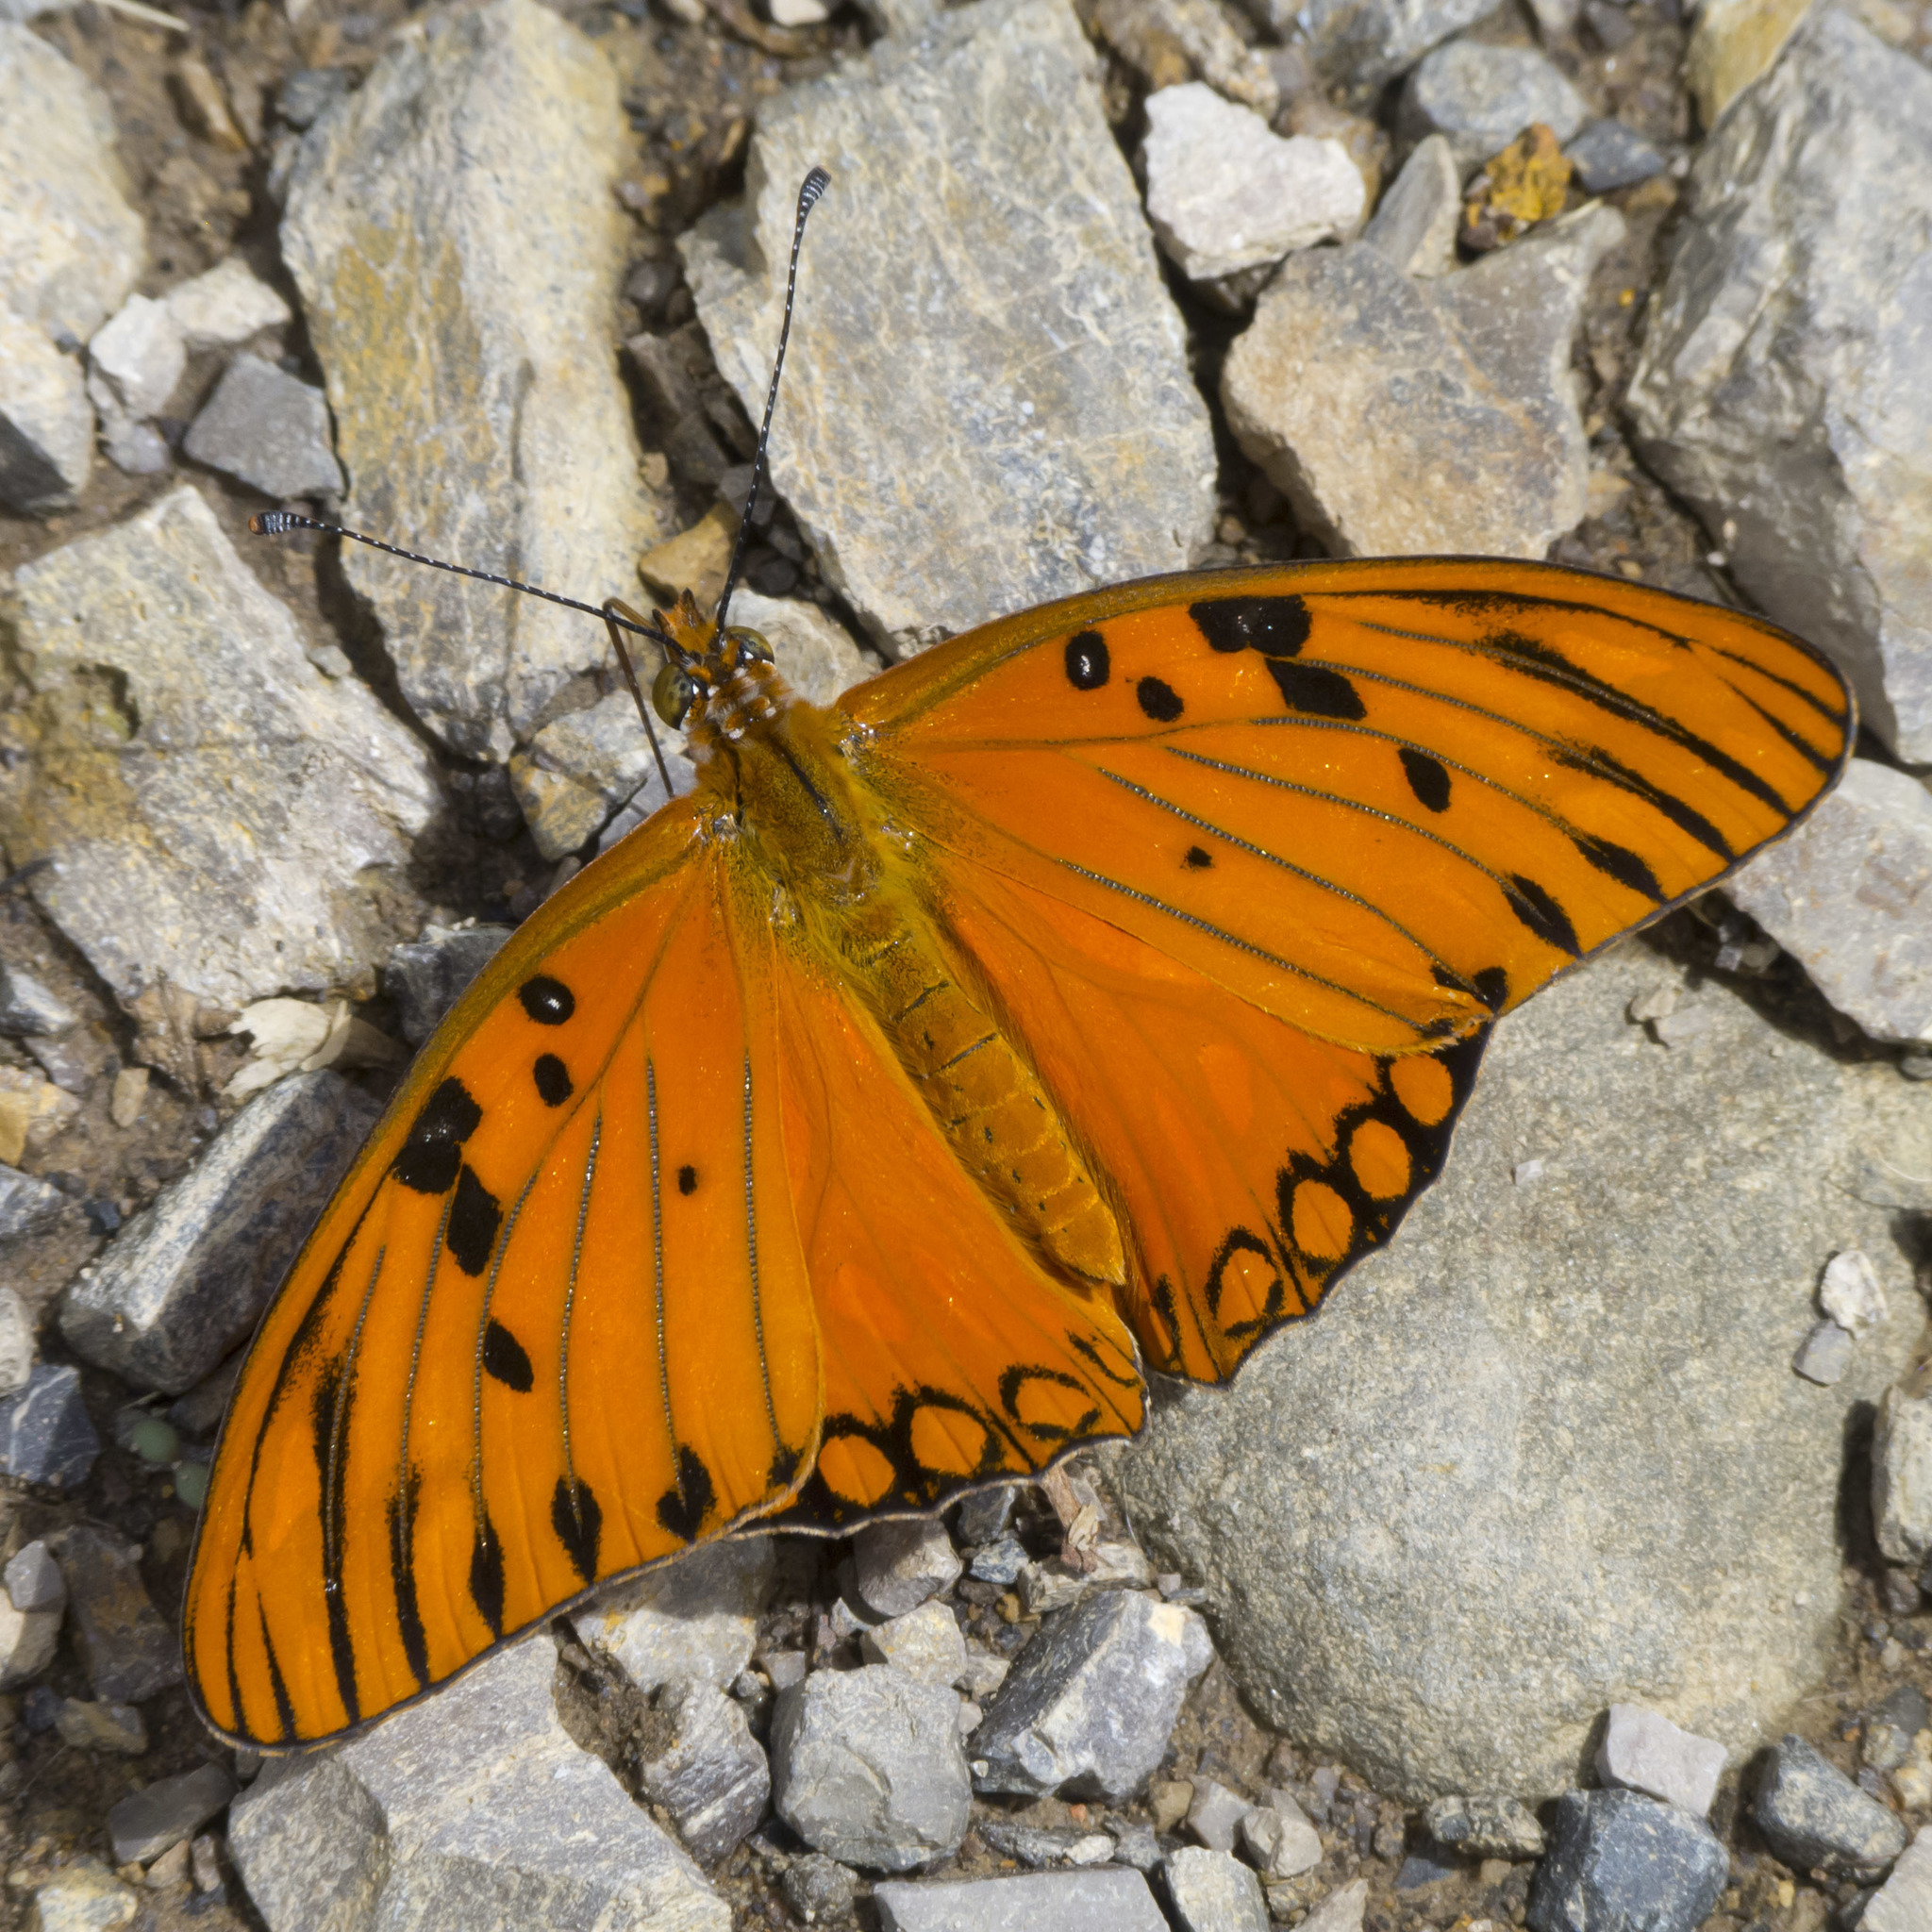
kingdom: Animalia
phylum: Arthropoda
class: Insecta
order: Lepidoptera
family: Nymphalidae
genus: Dione
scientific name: Dione vanillae
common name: Gulf fritillary
